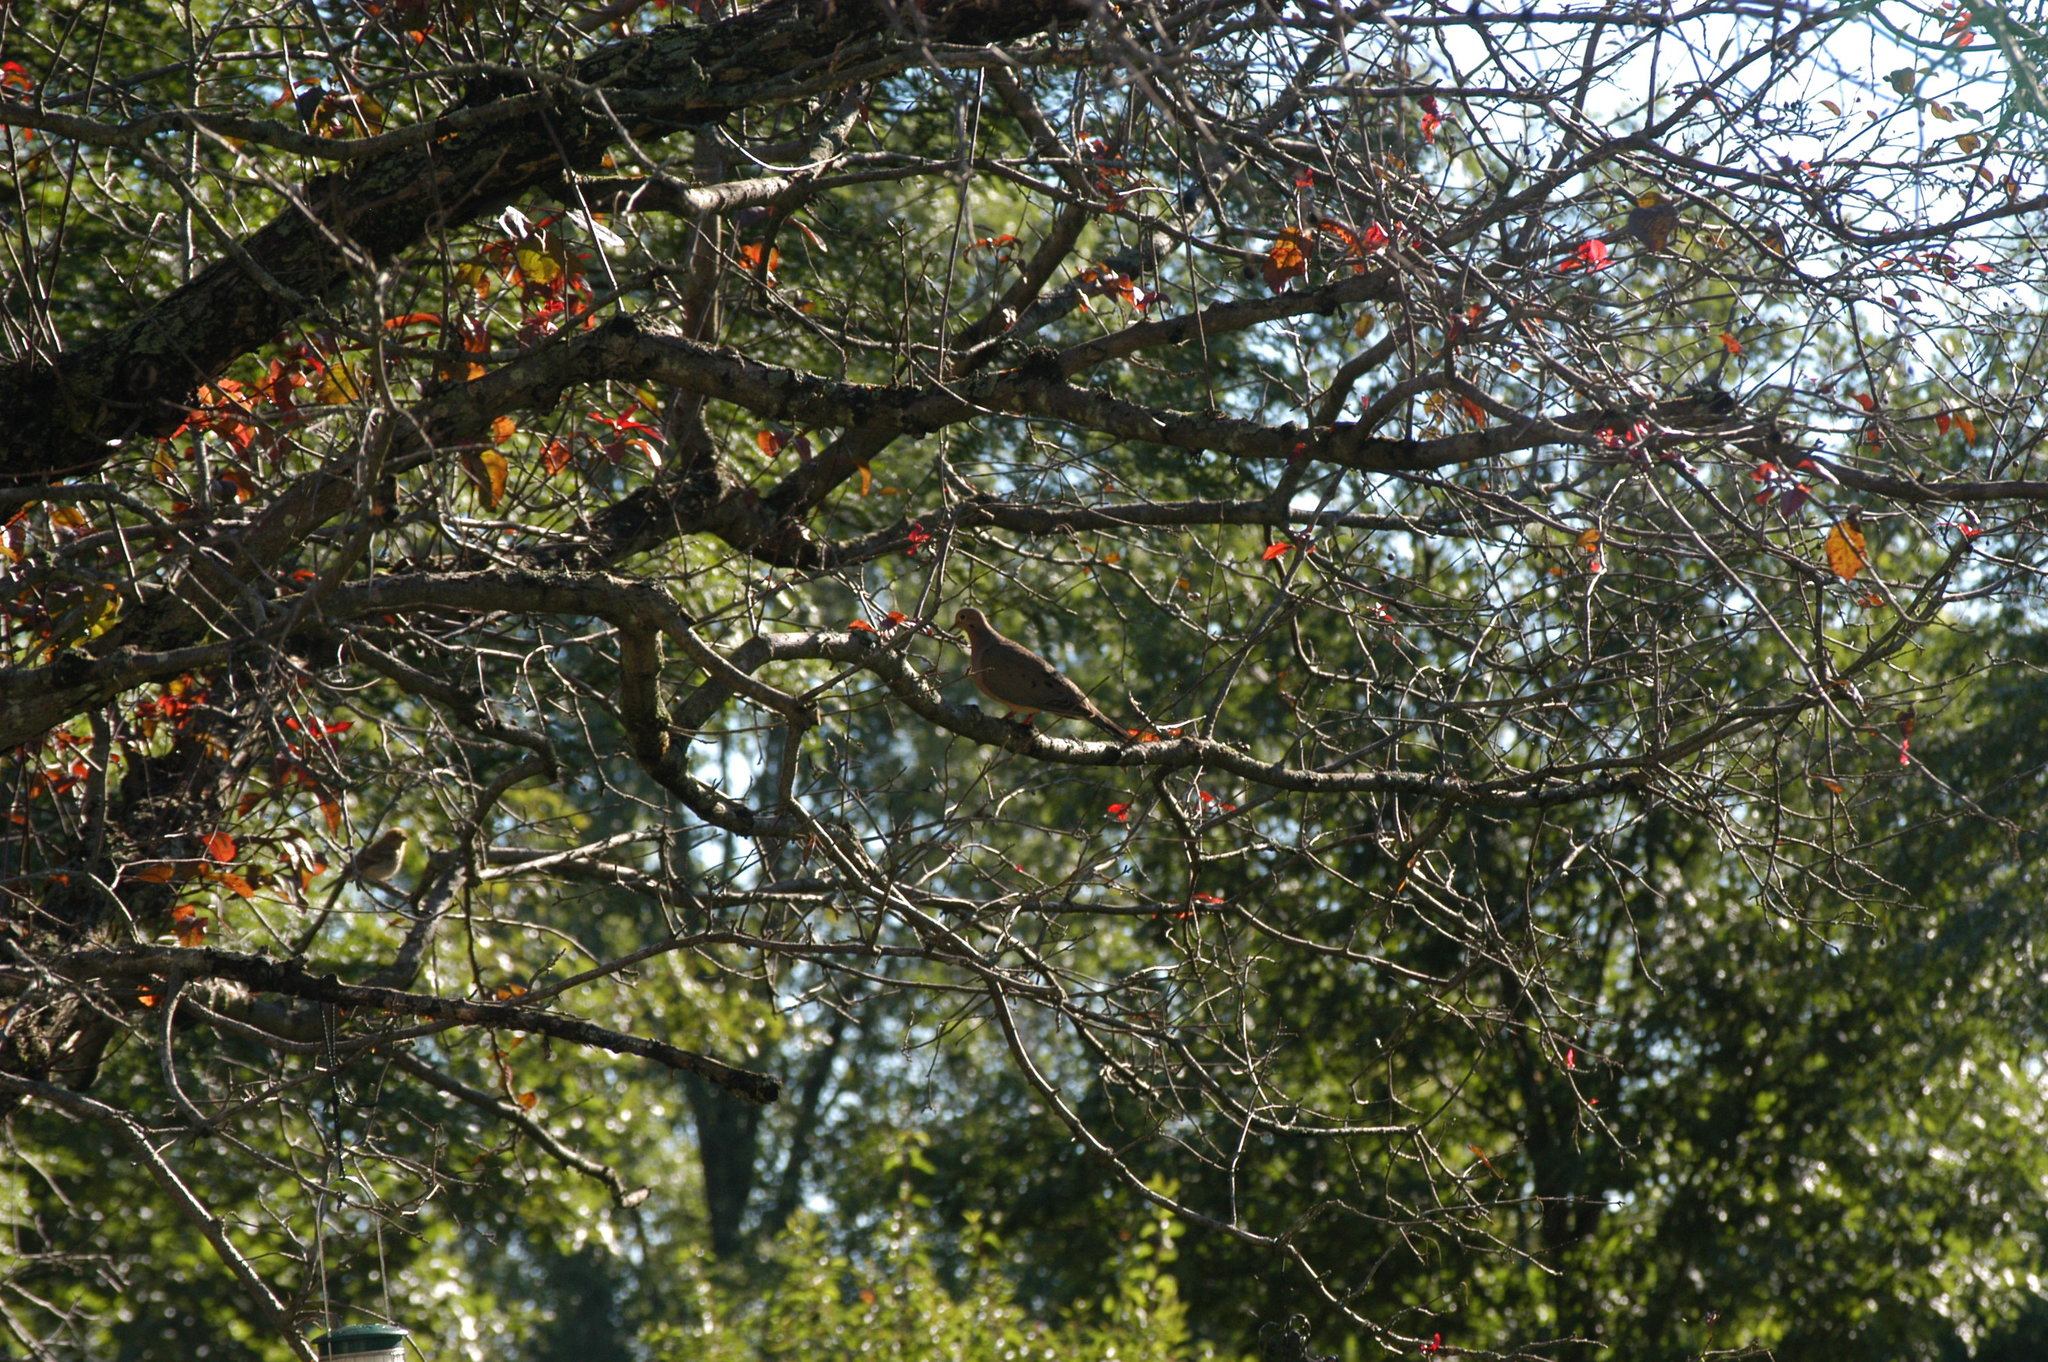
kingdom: Animalia
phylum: Chordata
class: Aves
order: Columbiformes
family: Columbidae
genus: Zenaida
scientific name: Zenaida macroura
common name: Mourning dove
